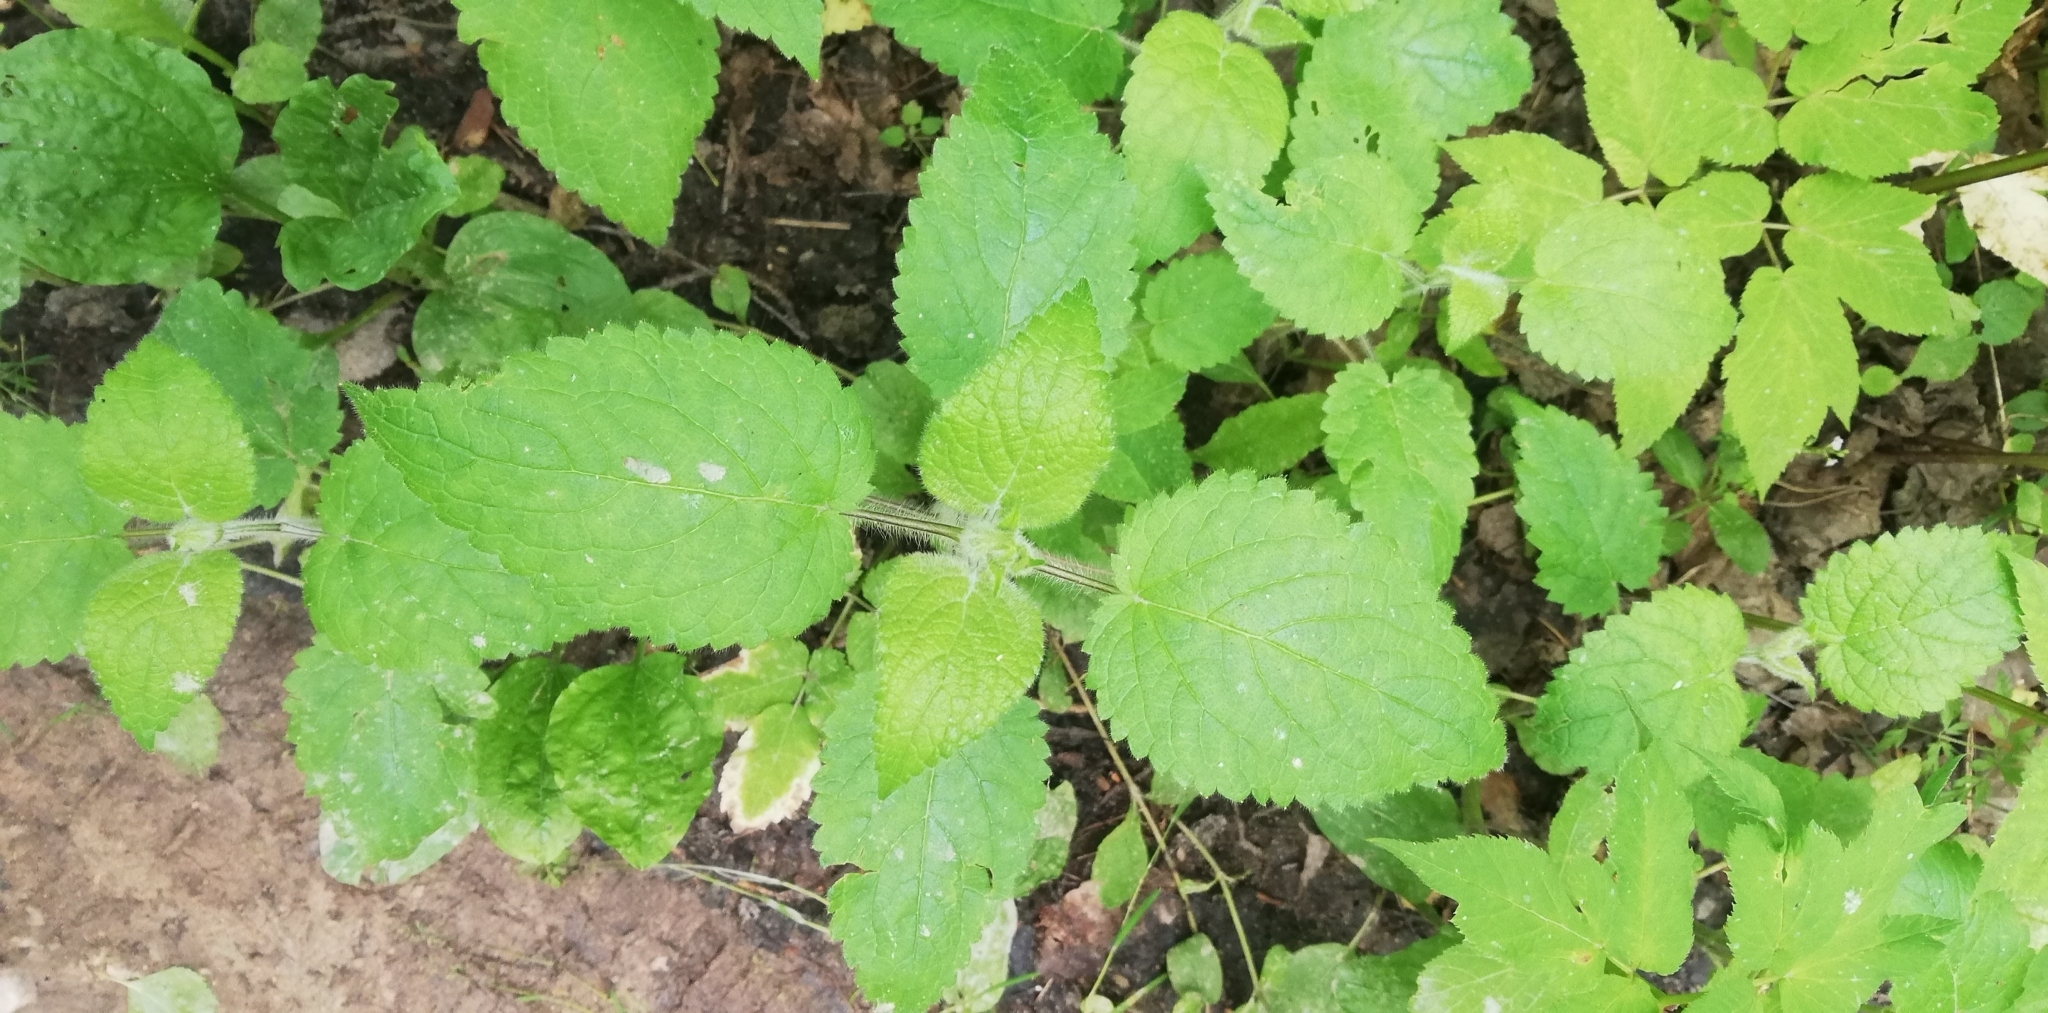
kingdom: Plantae
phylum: Tracheophyta
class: Magnoliopsida
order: Lamiales
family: Lamiaceae
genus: Stachys
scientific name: Stachys sylvatica
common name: Hedge woundwort
